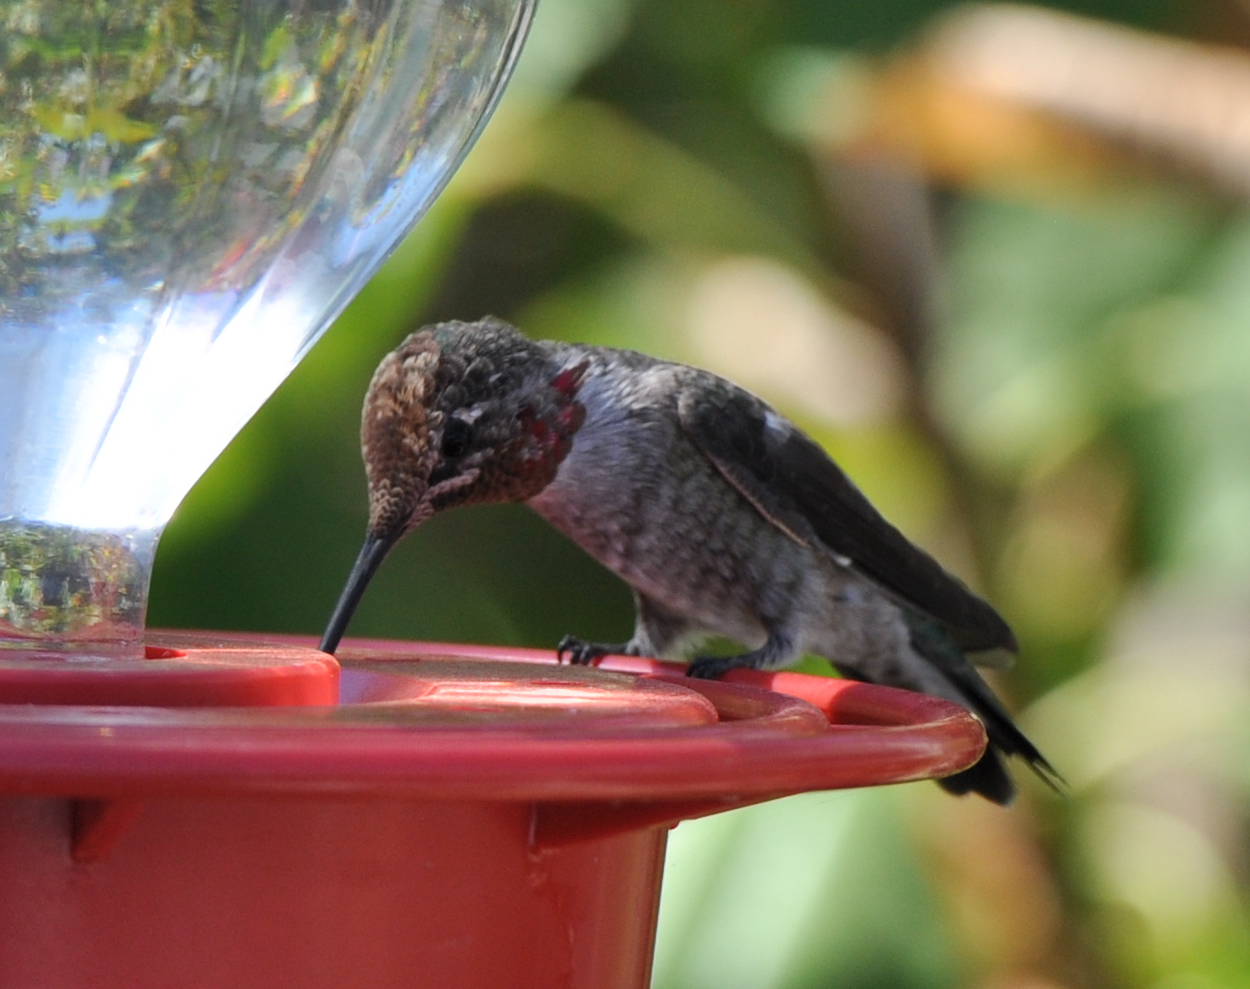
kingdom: Animalia
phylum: Chordata
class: Aves
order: Apodiformes
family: Trochilidae
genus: Calypte
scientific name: Calypte anna
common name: Anna's hummingbird
